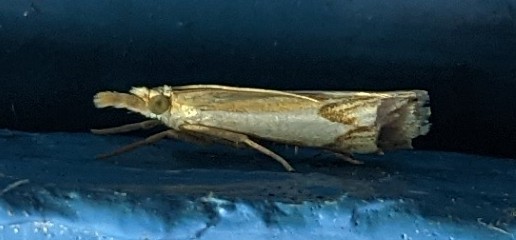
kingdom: Animalia
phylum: Arthropoda
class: Insecta
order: Lepidoptera
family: Crambidae
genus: Crambus
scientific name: Crambus agitatellus
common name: Double-banded grass-veneer
